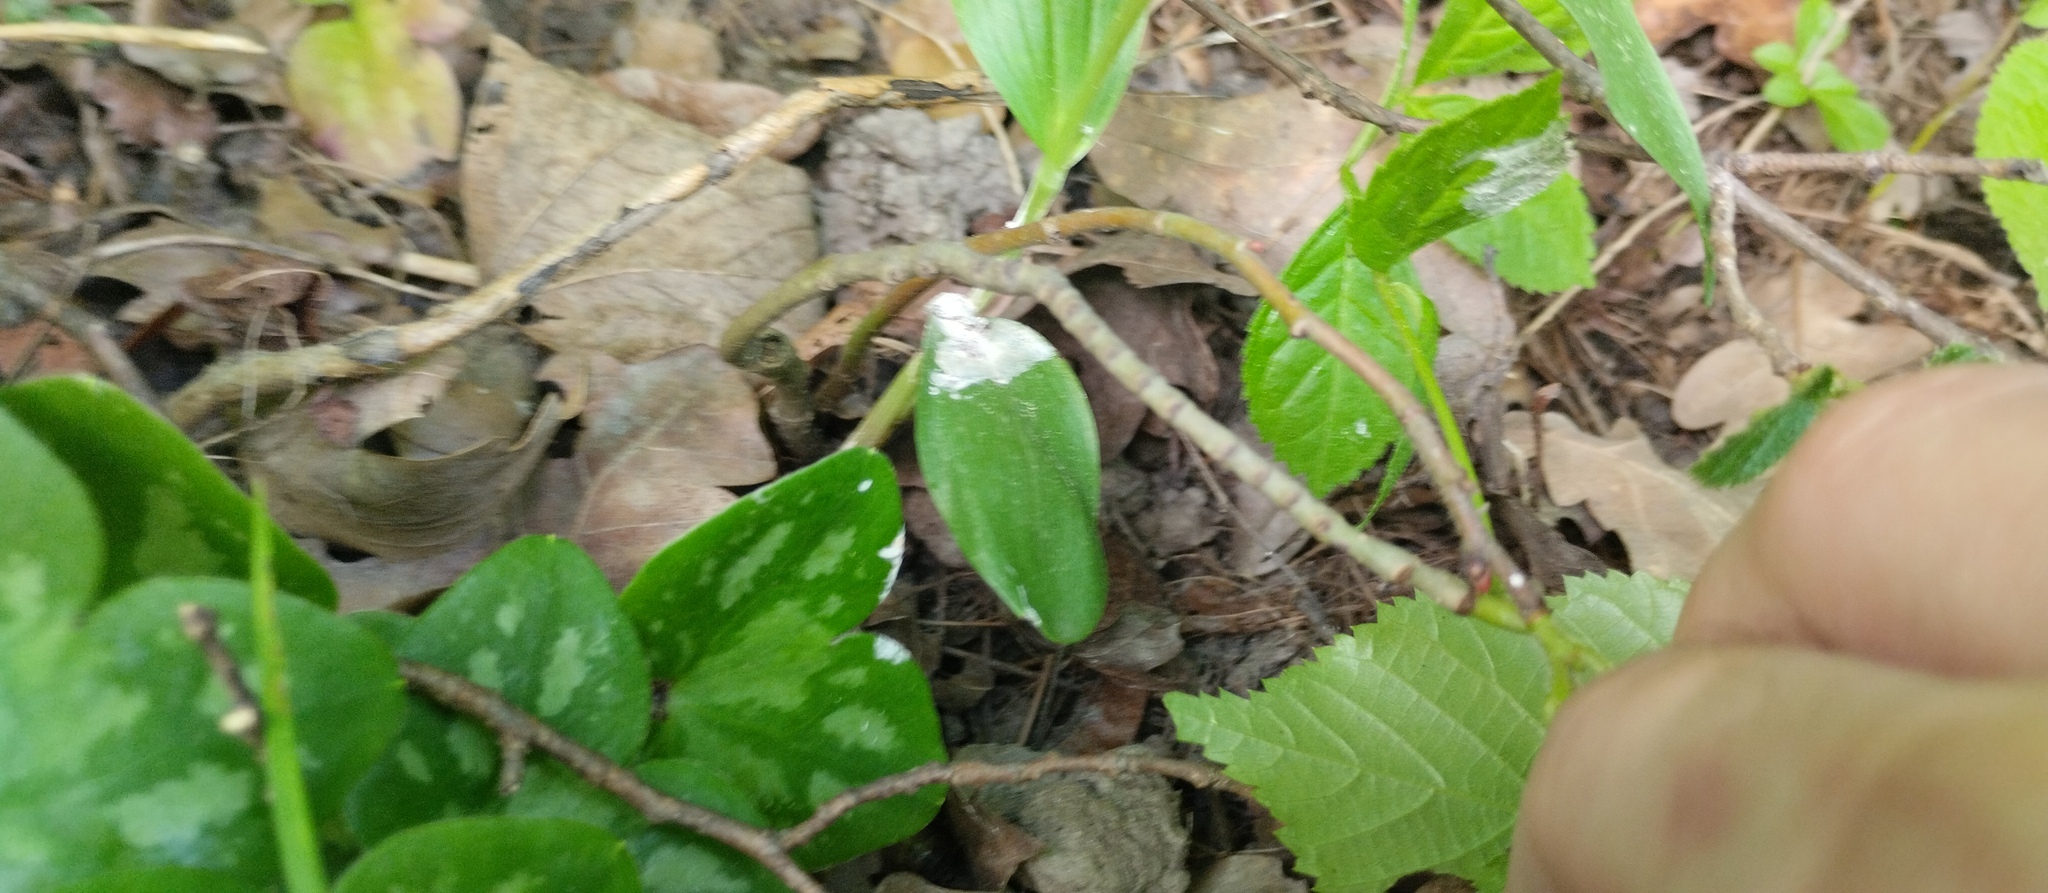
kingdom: Plantae
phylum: Tracheophyta
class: Liliopsida
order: Asparagales
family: Orchidaceae
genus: Cephalanthera
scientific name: Cephalanthera damasonium
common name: White helleborine
